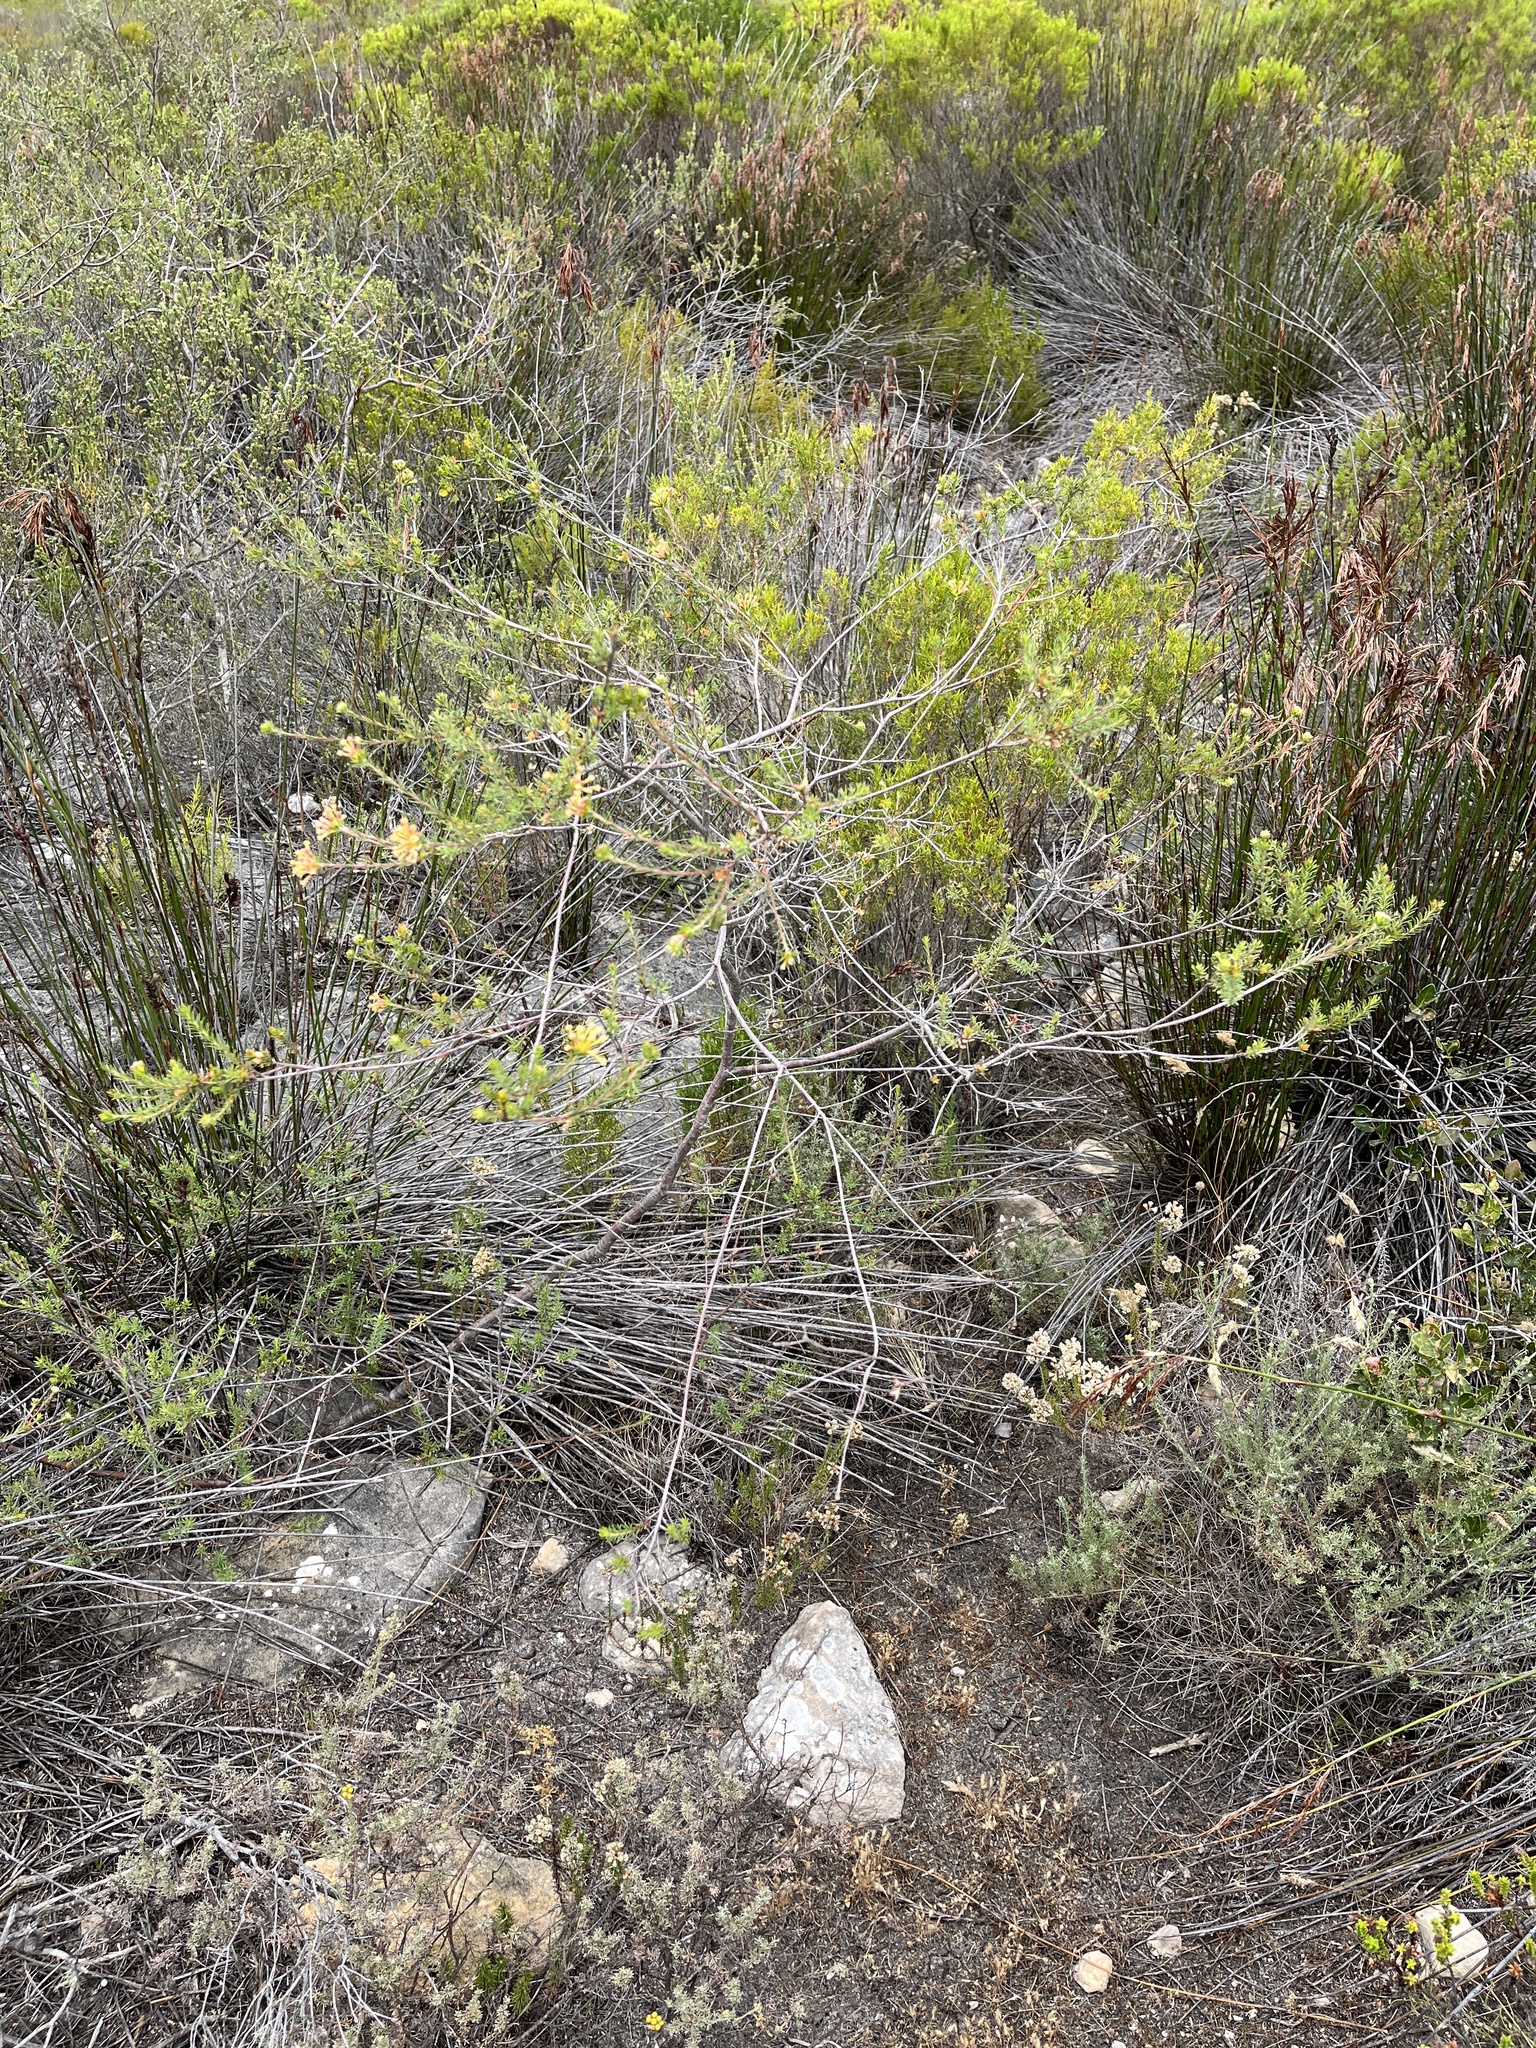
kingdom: Plantae
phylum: Tracheophyta
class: Magnoliopsida
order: Malvales
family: Thymelaeaceae
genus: Gnidia
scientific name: Gnidia squarrosa
